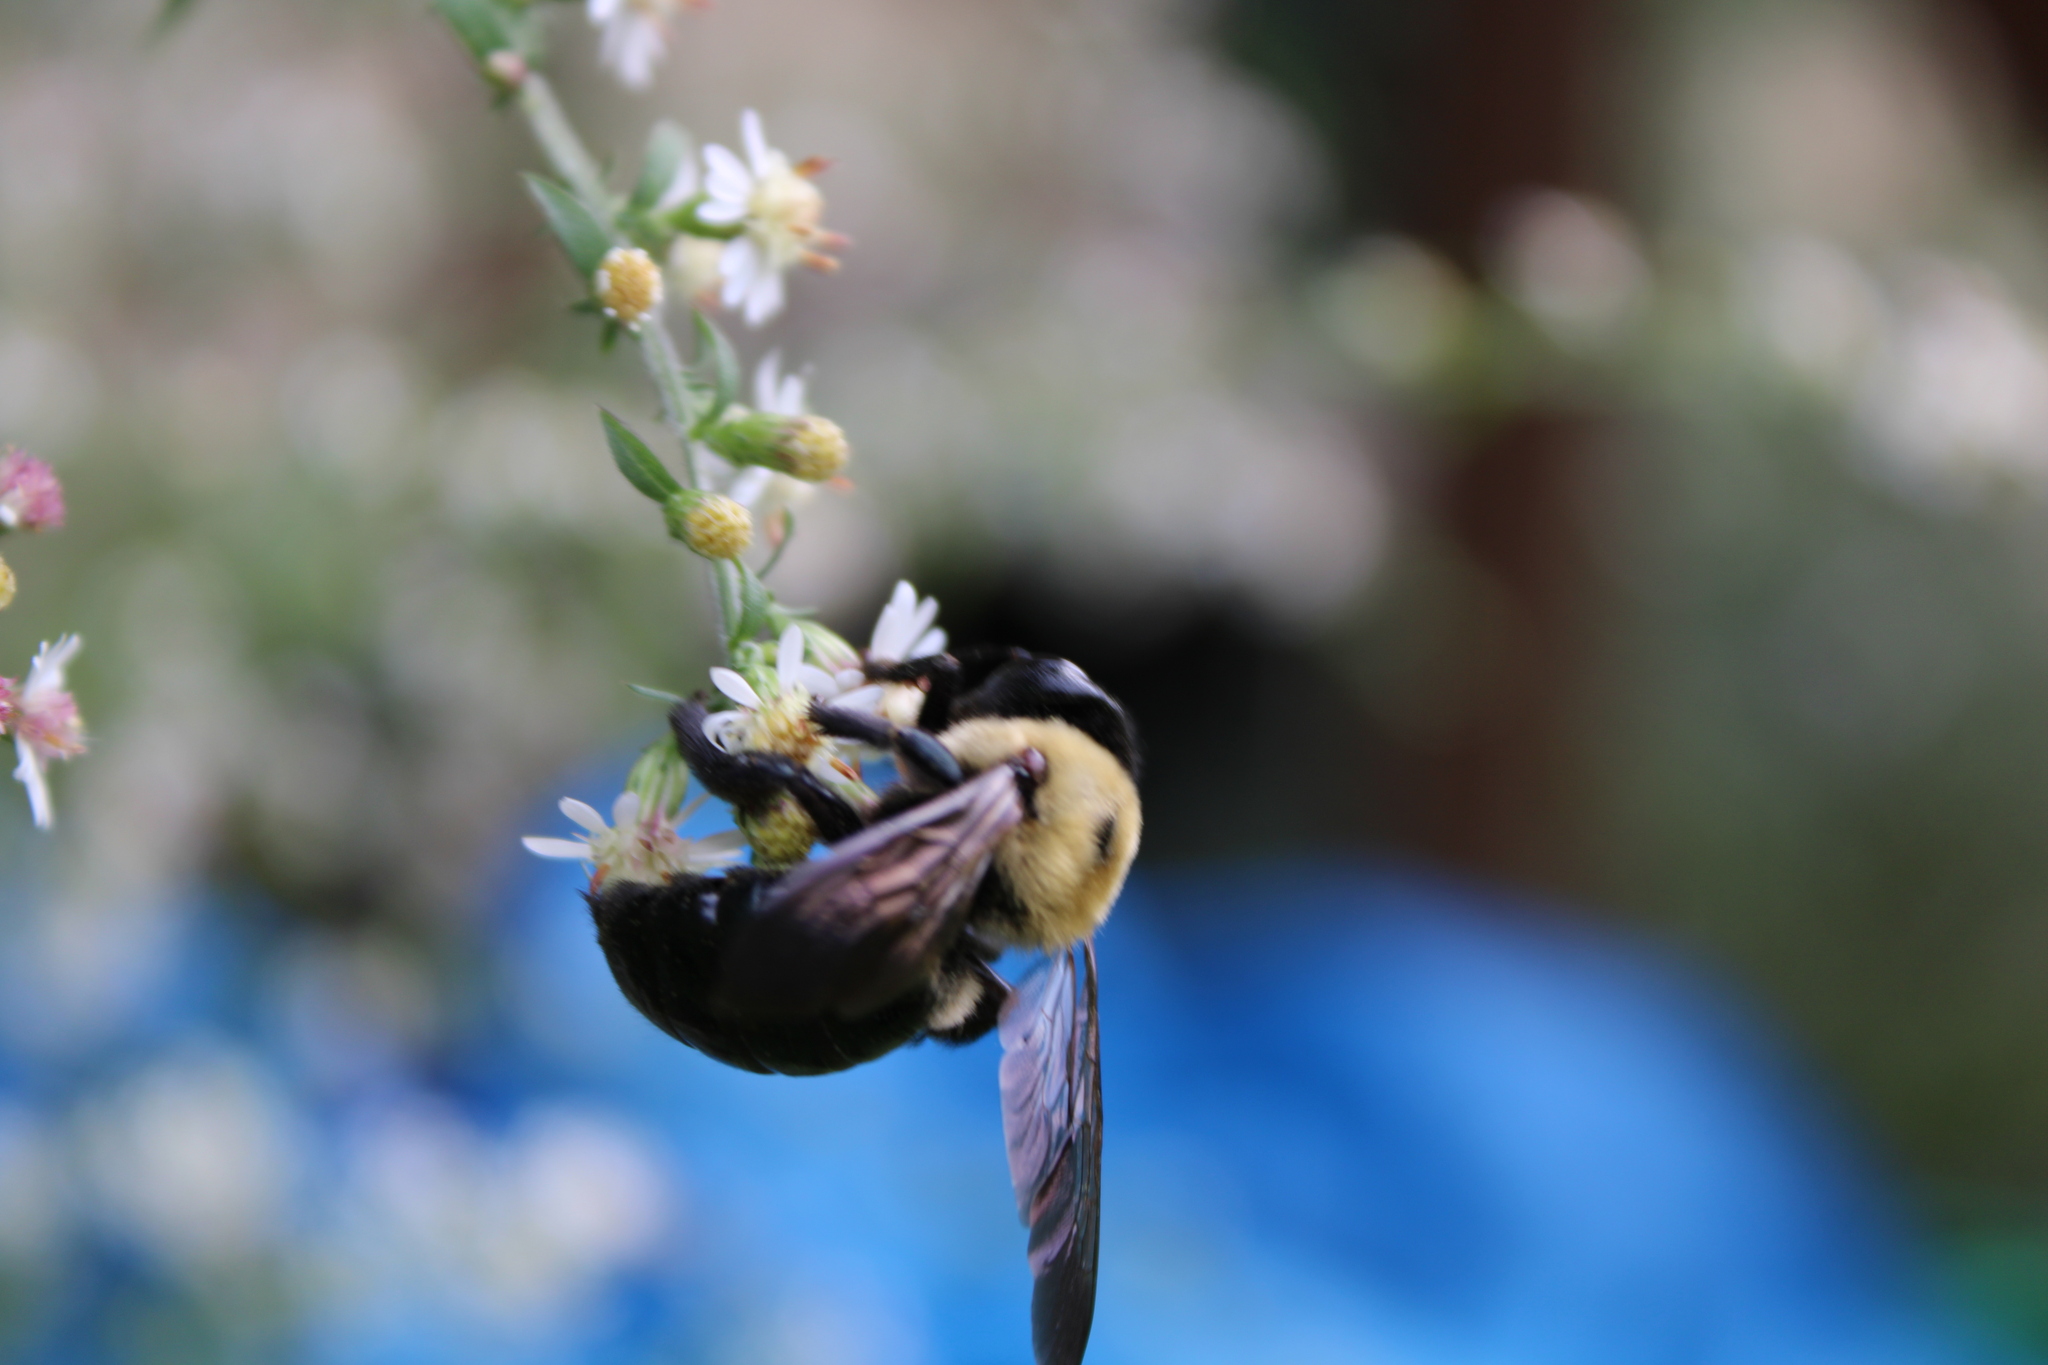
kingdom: Animalia
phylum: Arthropoda
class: Insecta
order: Hymenoptera
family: Apidae
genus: Xylocopa
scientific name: Xylocopa virginica
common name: Carpenter bee
